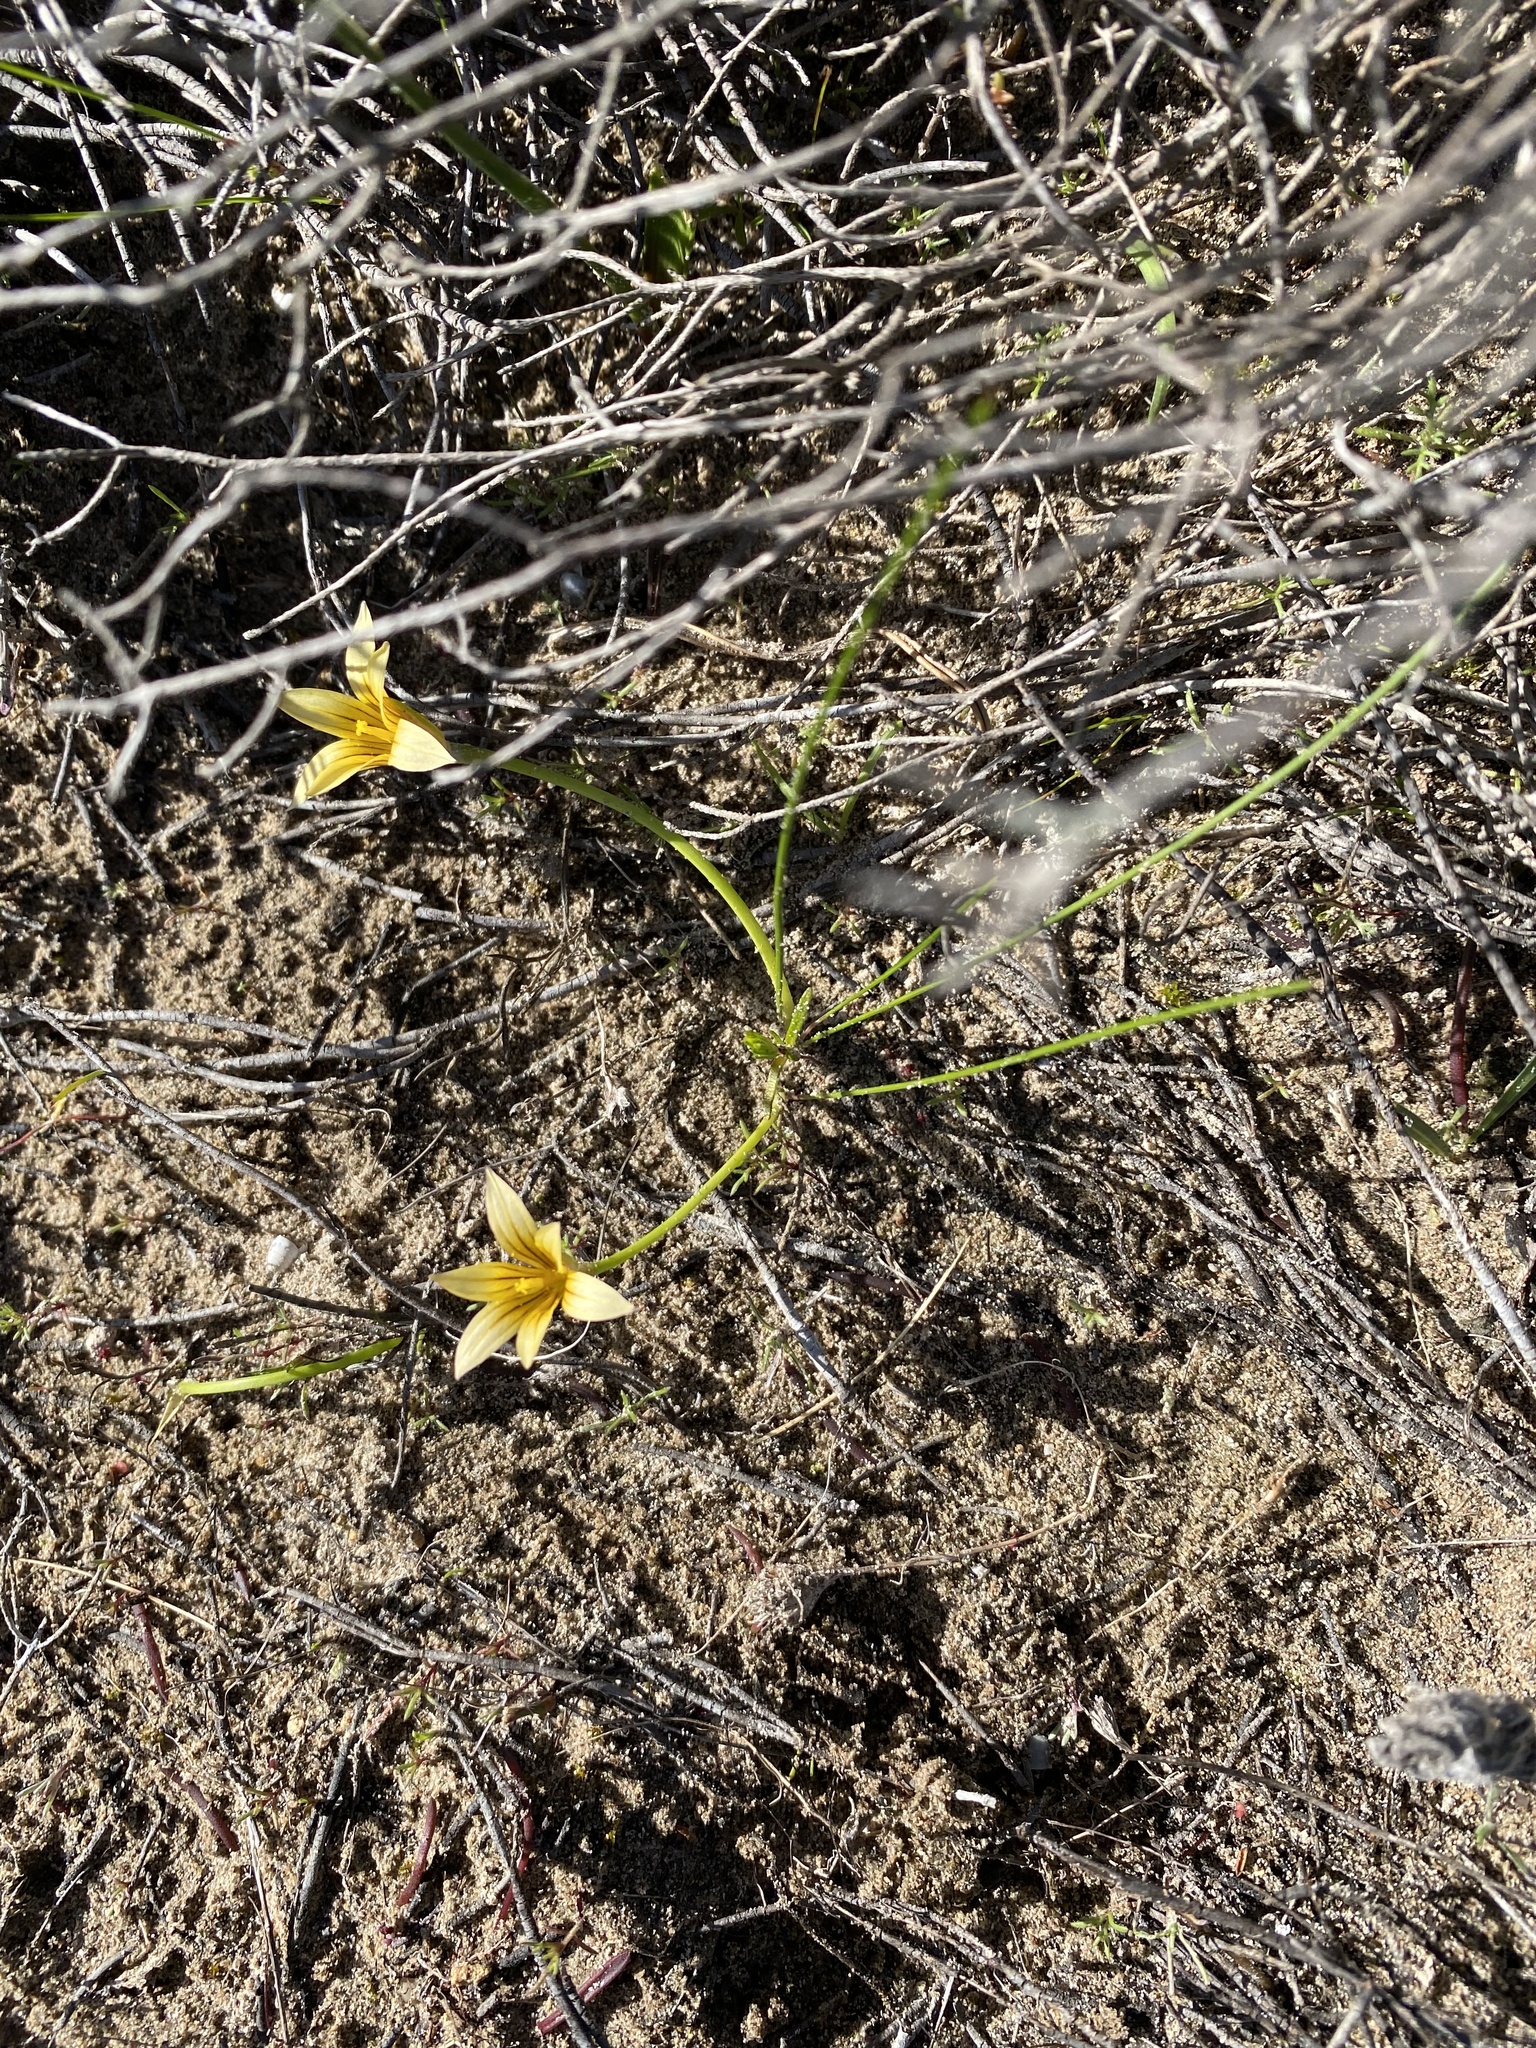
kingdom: Plantae
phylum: Tracheophyta
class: Liliopsida
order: Asparagales
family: Iridaceae
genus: Romulea
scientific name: Romulea flava
